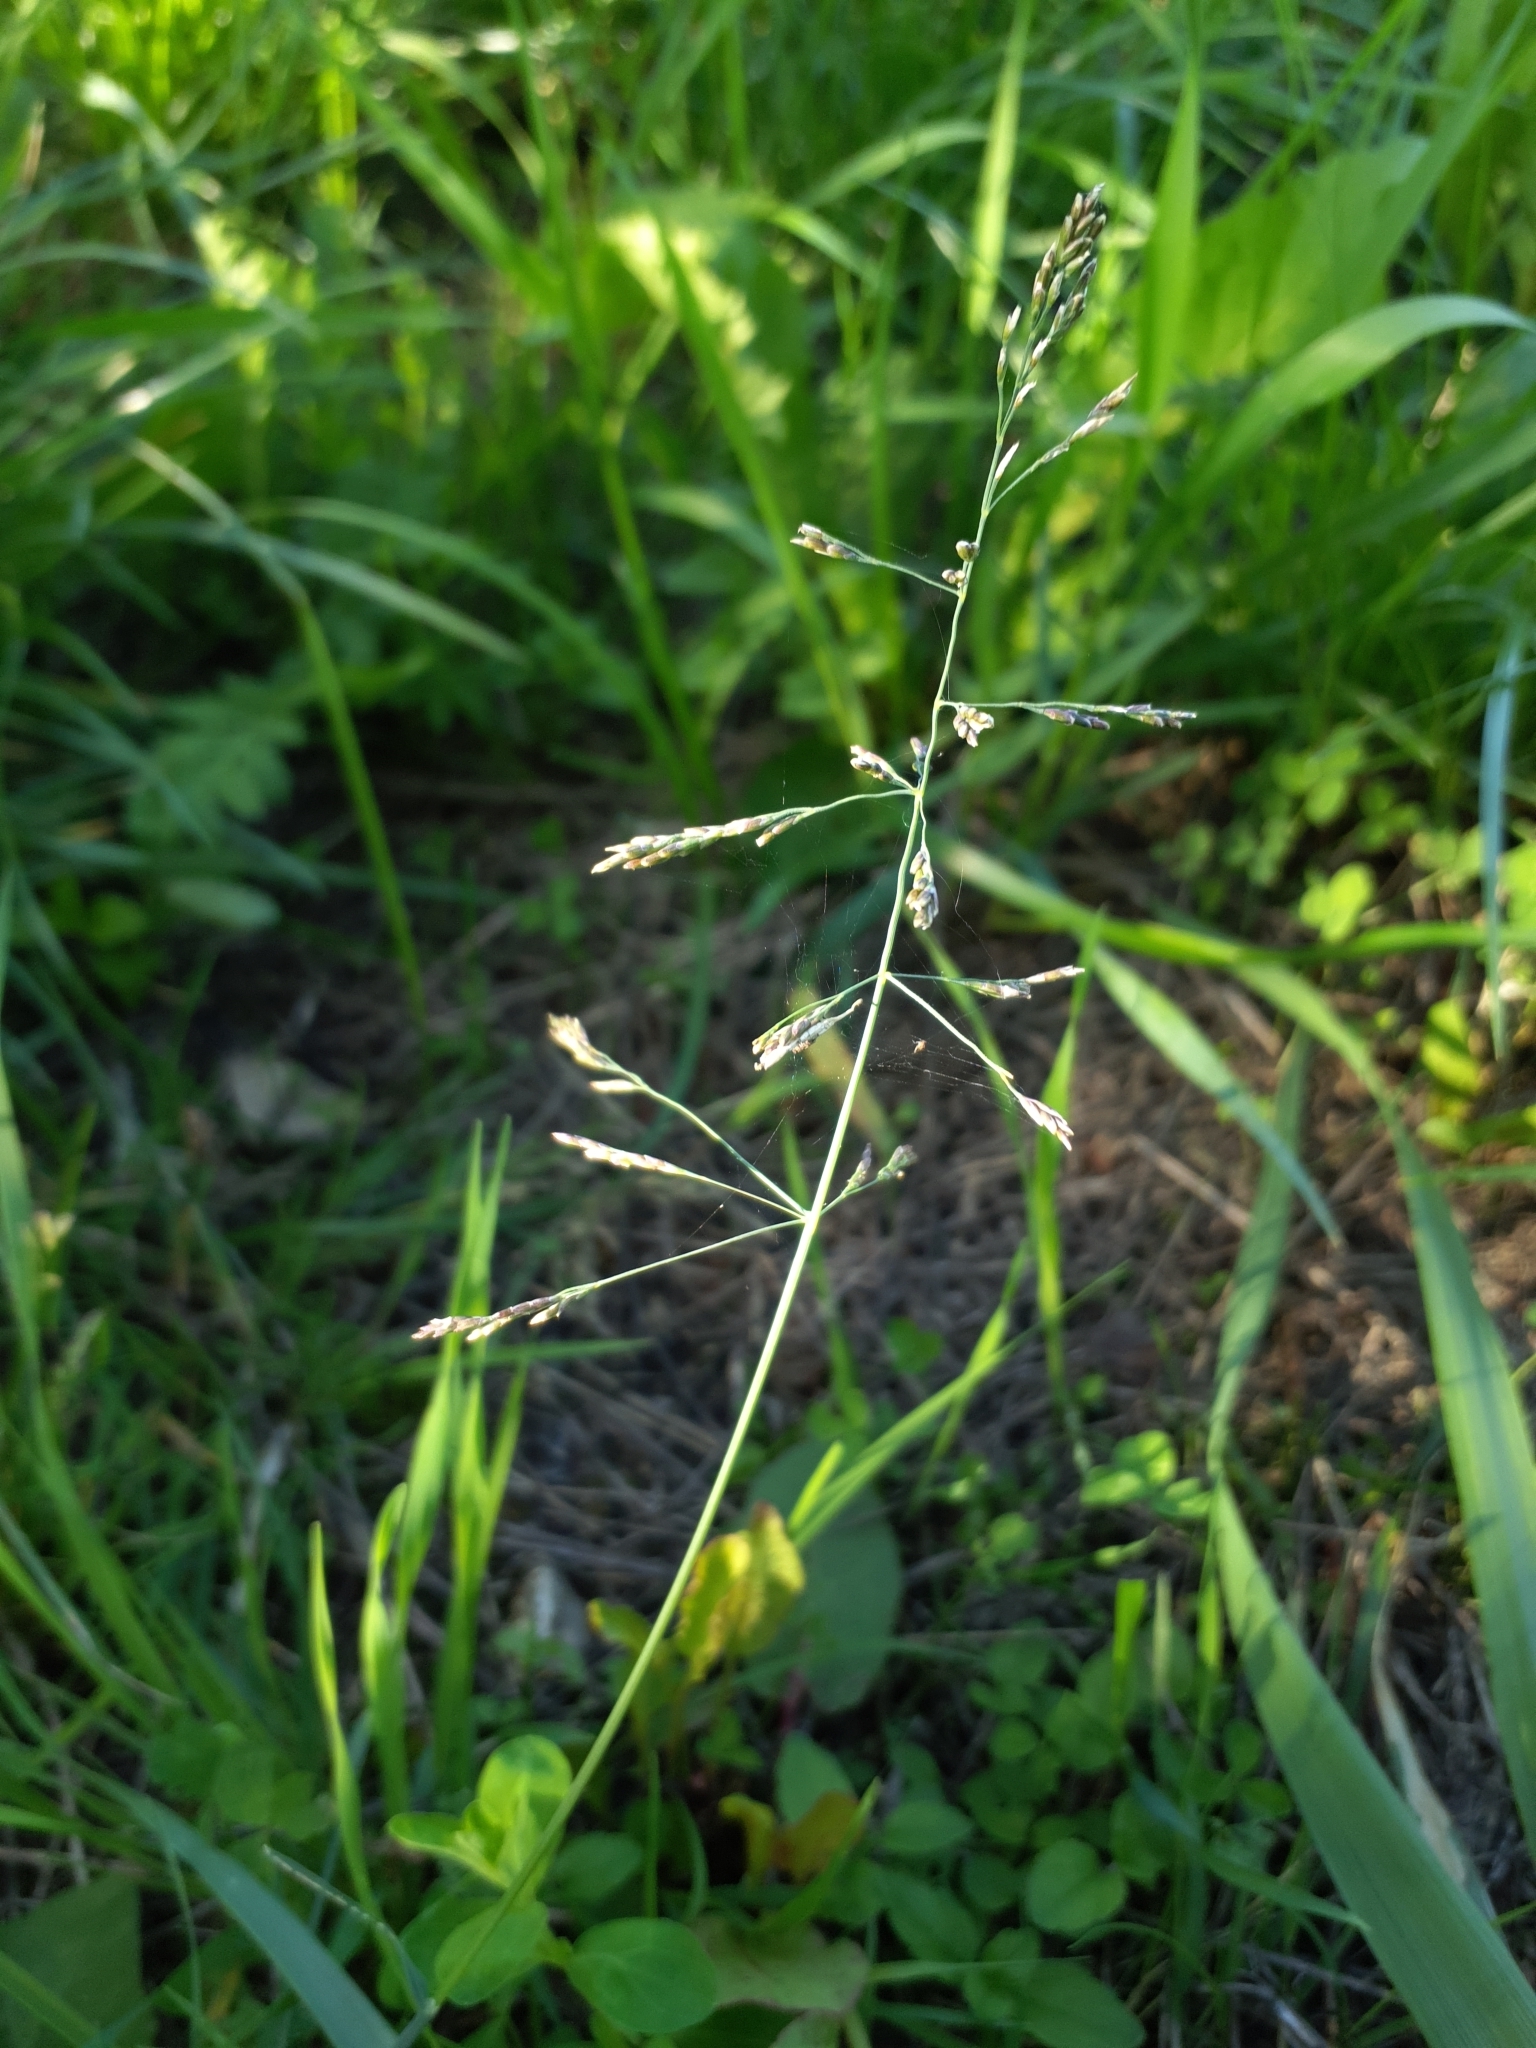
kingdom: Plantae
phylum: Tracheophyta
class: Liliopsida
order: Poales
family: Poaceae
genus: Puccinellia
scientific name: Puccinellia distans
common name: Weeping alkaligrass
